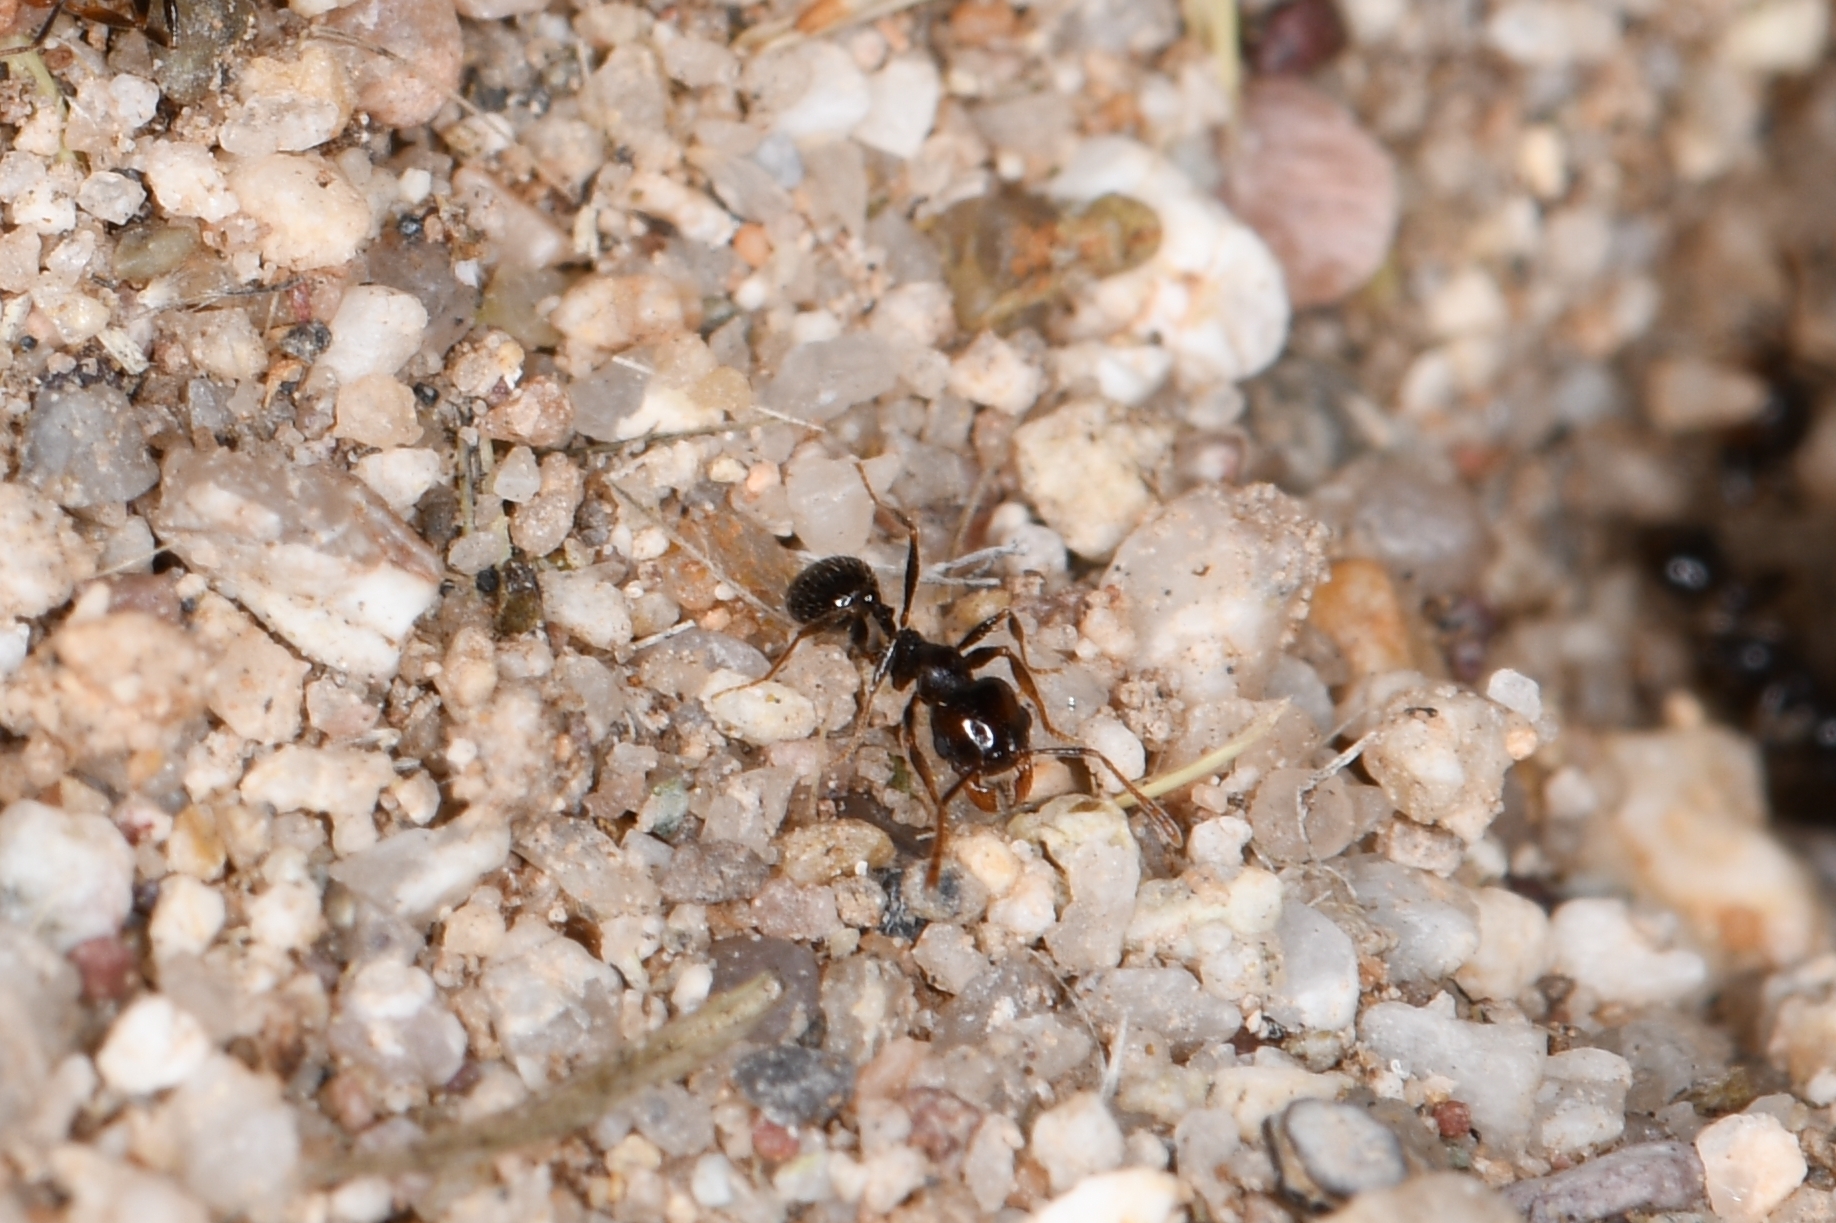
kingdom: Animalia
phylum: Arthropoda
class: Insecta
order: Hymenoptera
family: Formicidae
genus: Pheidole
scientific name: Pheidole xerophila
